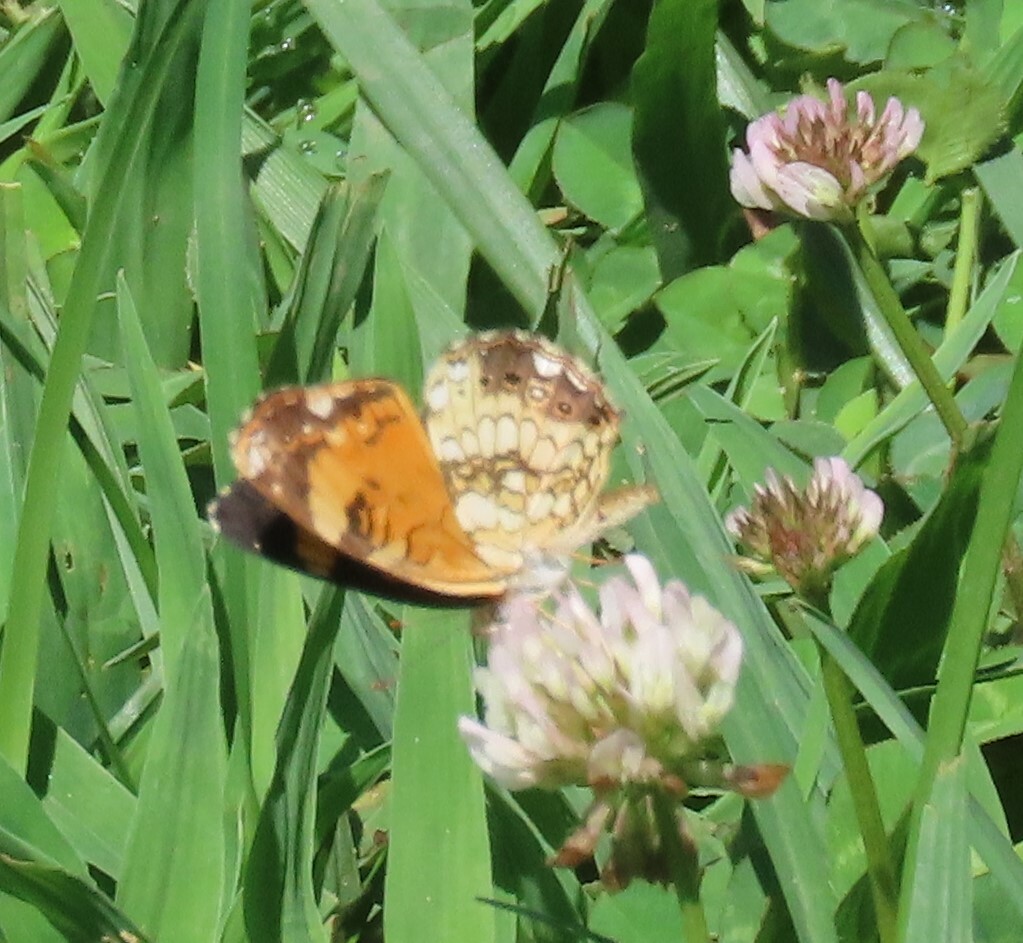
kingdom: Animalia
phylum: Arthropoda
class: Insecta
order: Lepidoptera
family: Nymphalidae
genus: Chlosyne
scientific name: Chlosyne nycteis
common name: Silvery checkerspot
